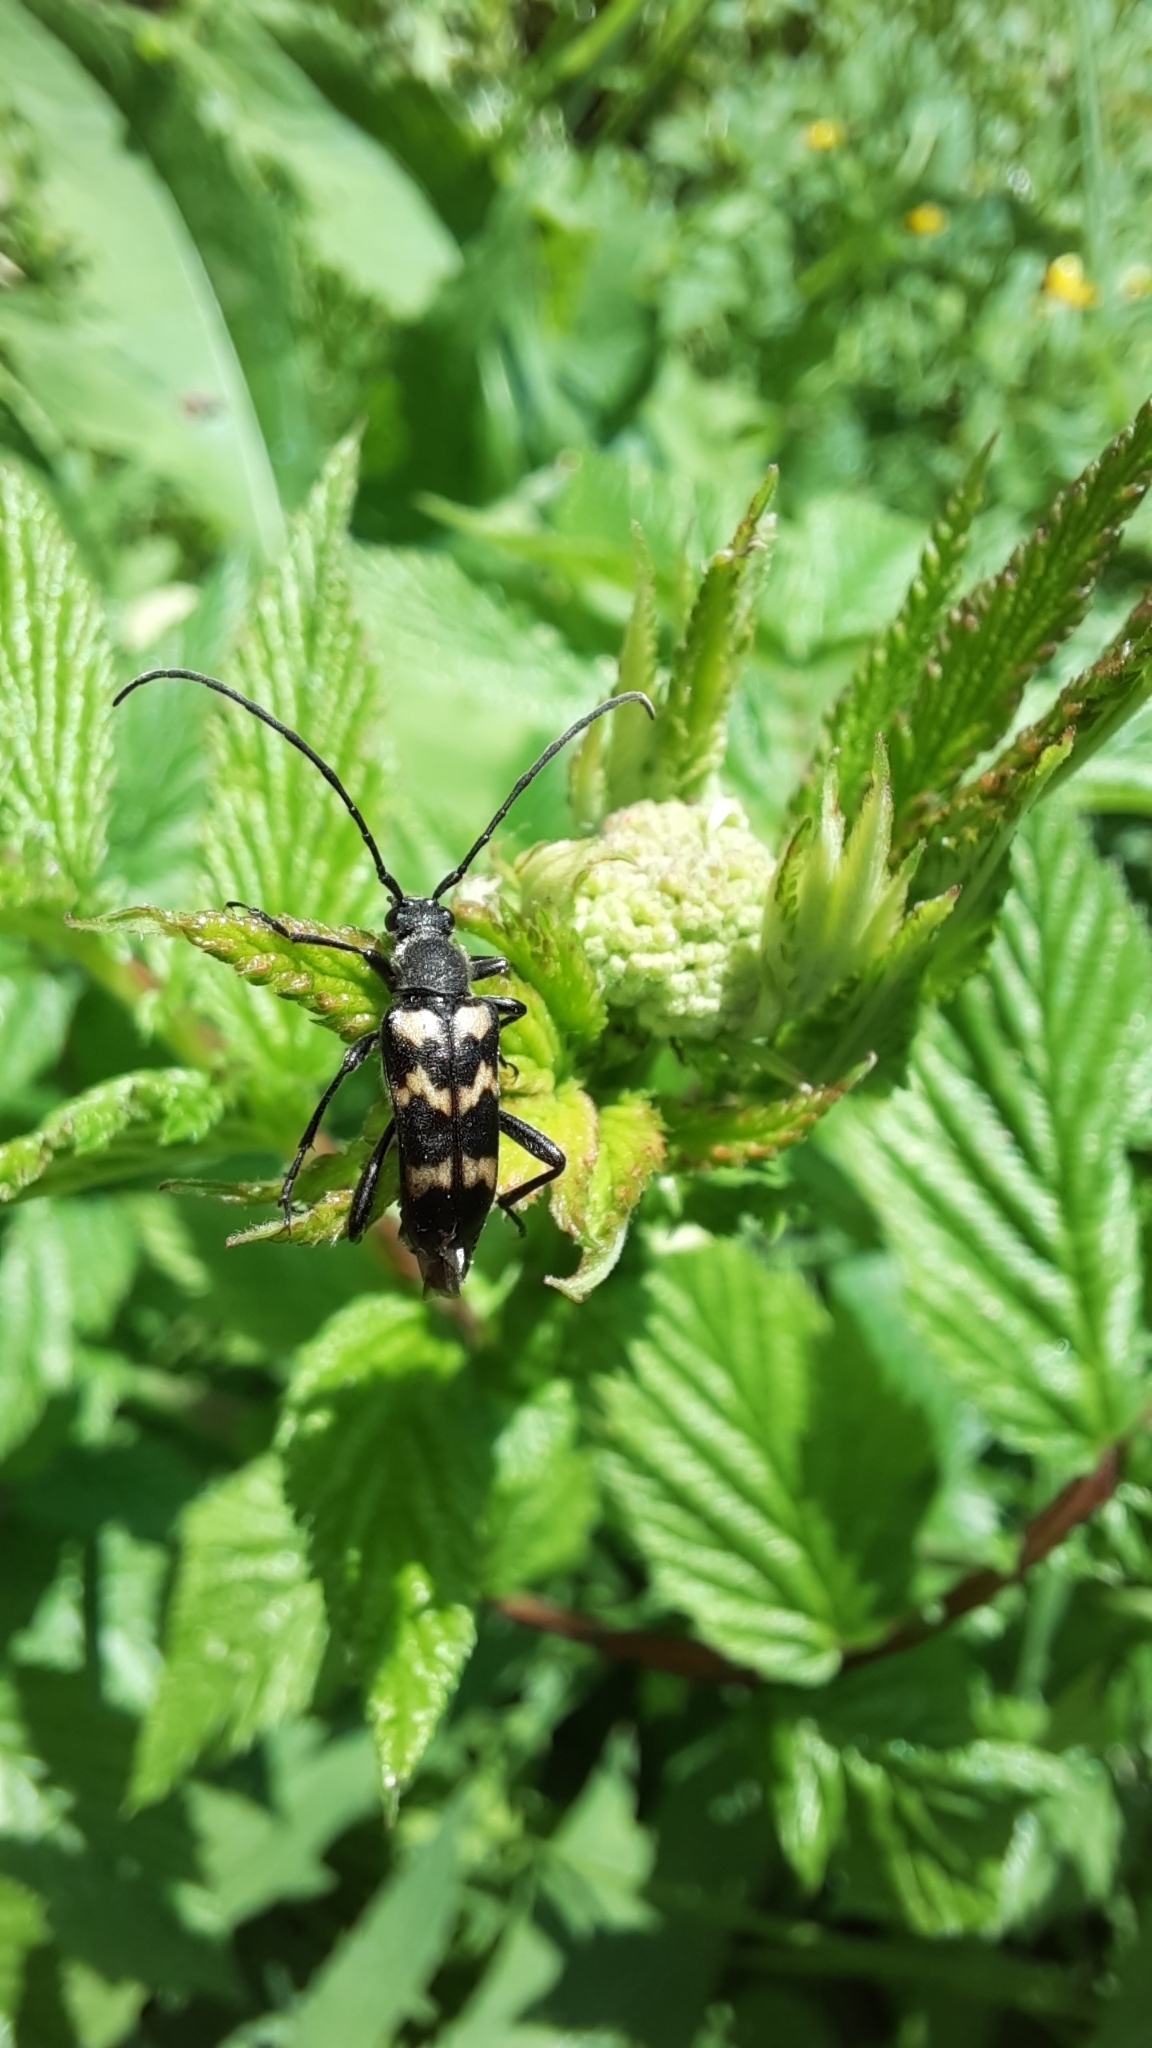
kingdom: Animalia
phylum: Arthropoda
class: Insecta
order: Coleoptera
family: Cerambycidae
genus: Judolia
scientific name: Judolia sexmaculata
